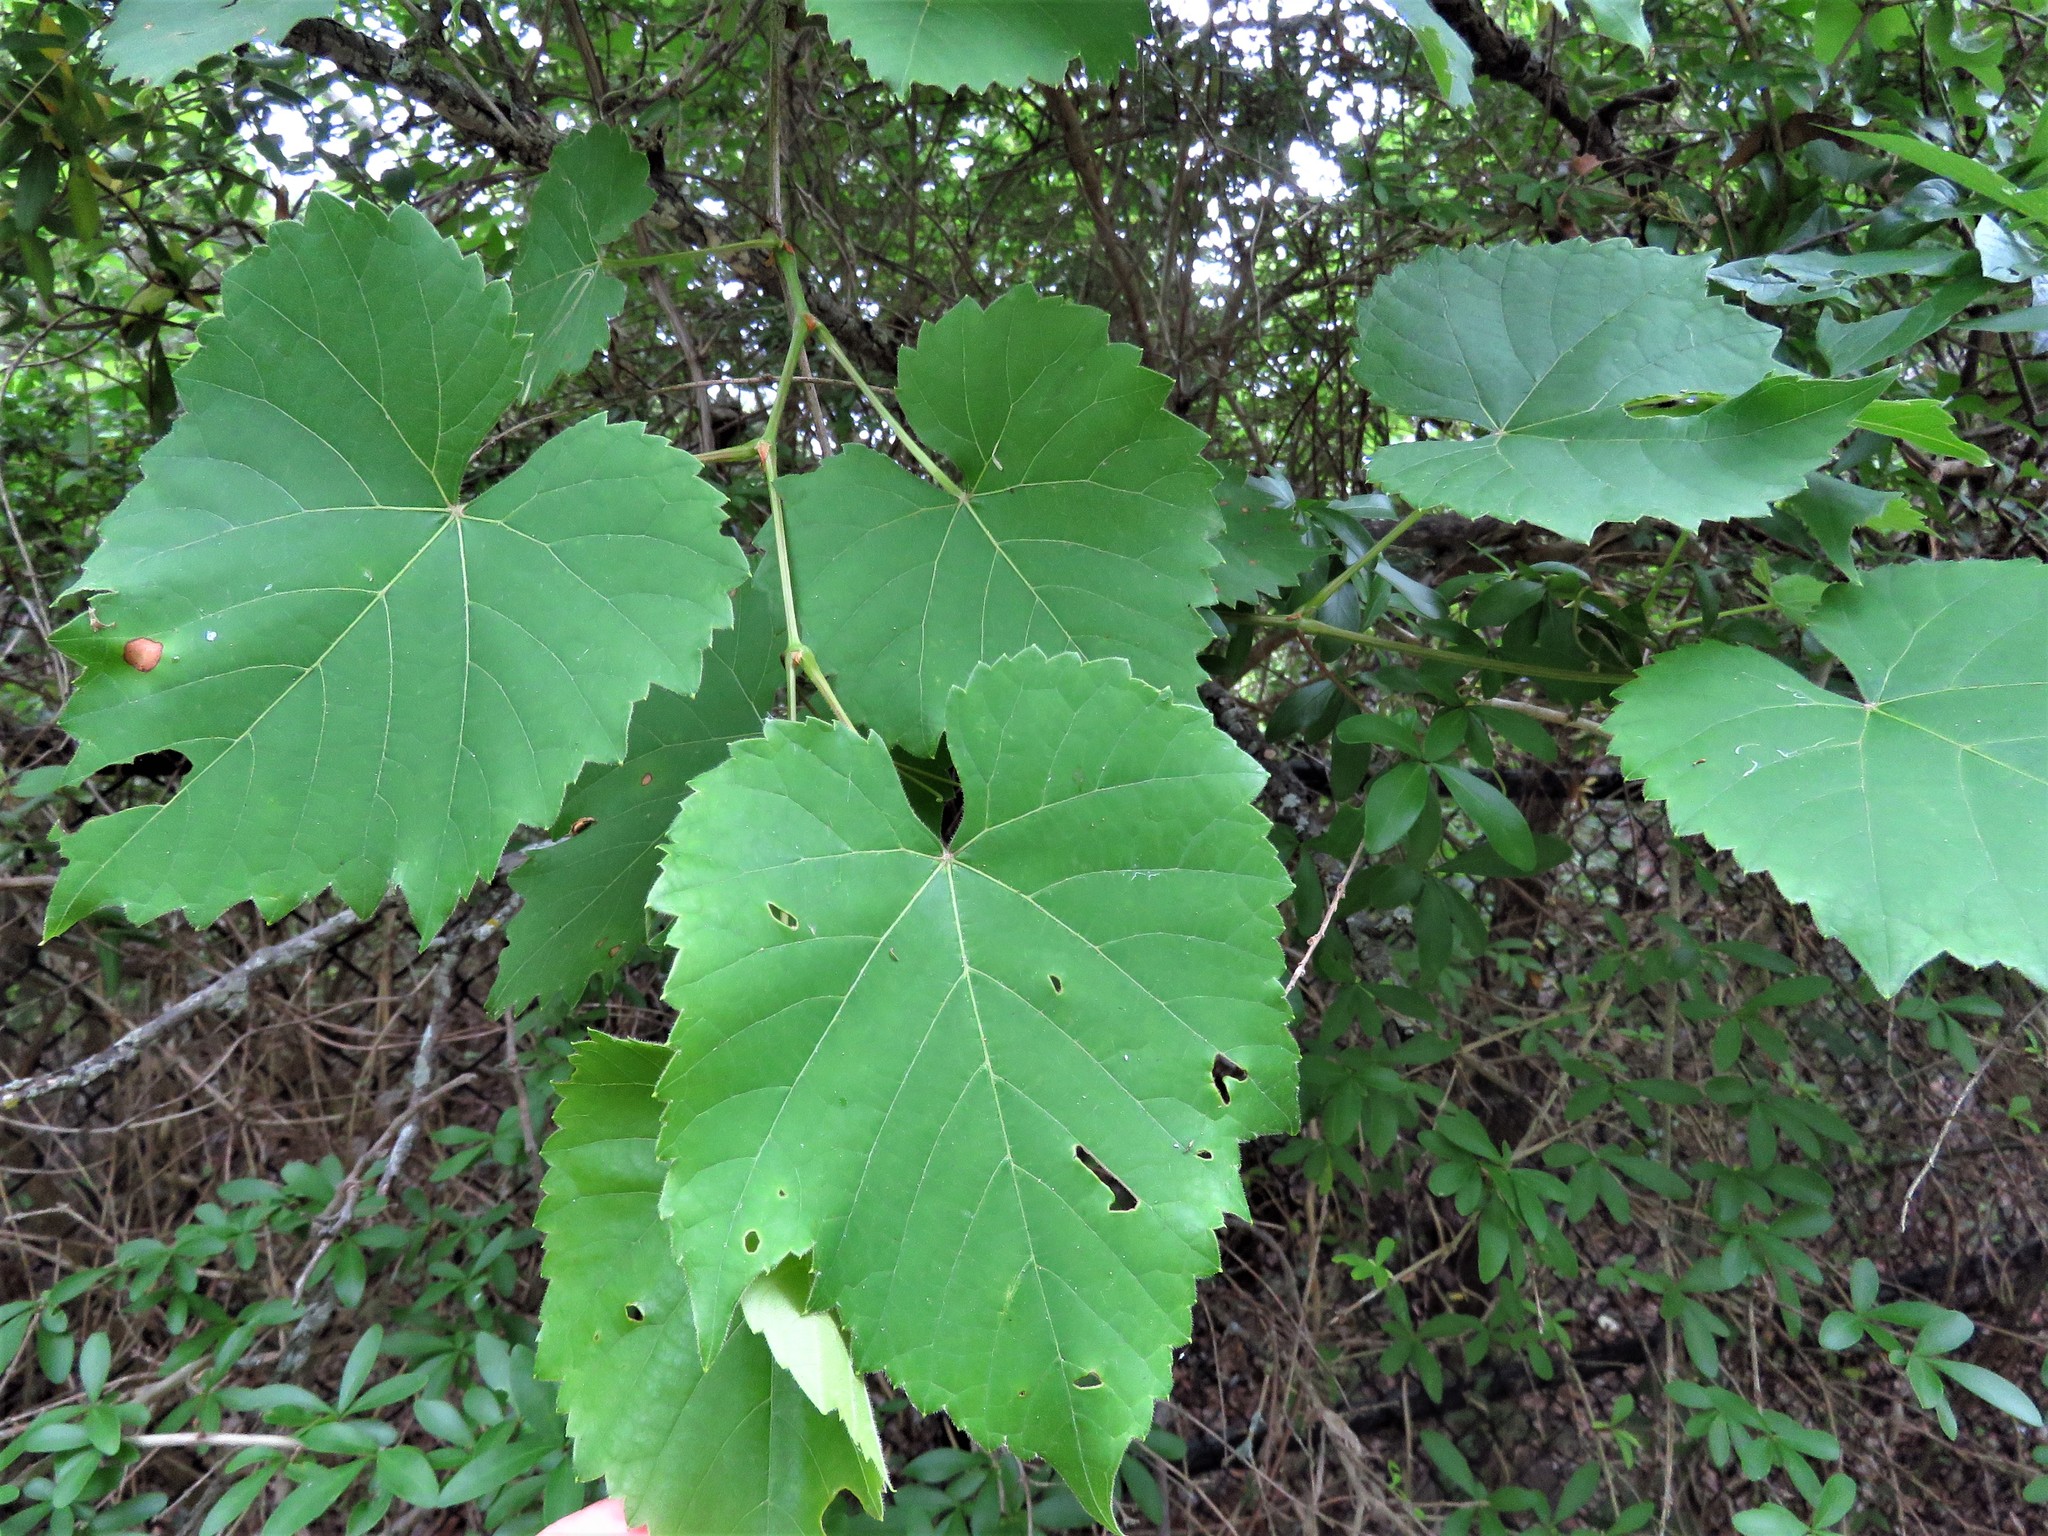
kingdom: Plantae
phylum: Tracheophyta
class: Magnoliopsida
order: Vitales
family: Vitaceae
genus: Ampelopsis
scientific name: Ampelopsis cordata
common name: Heart-leaf ampelopsis
